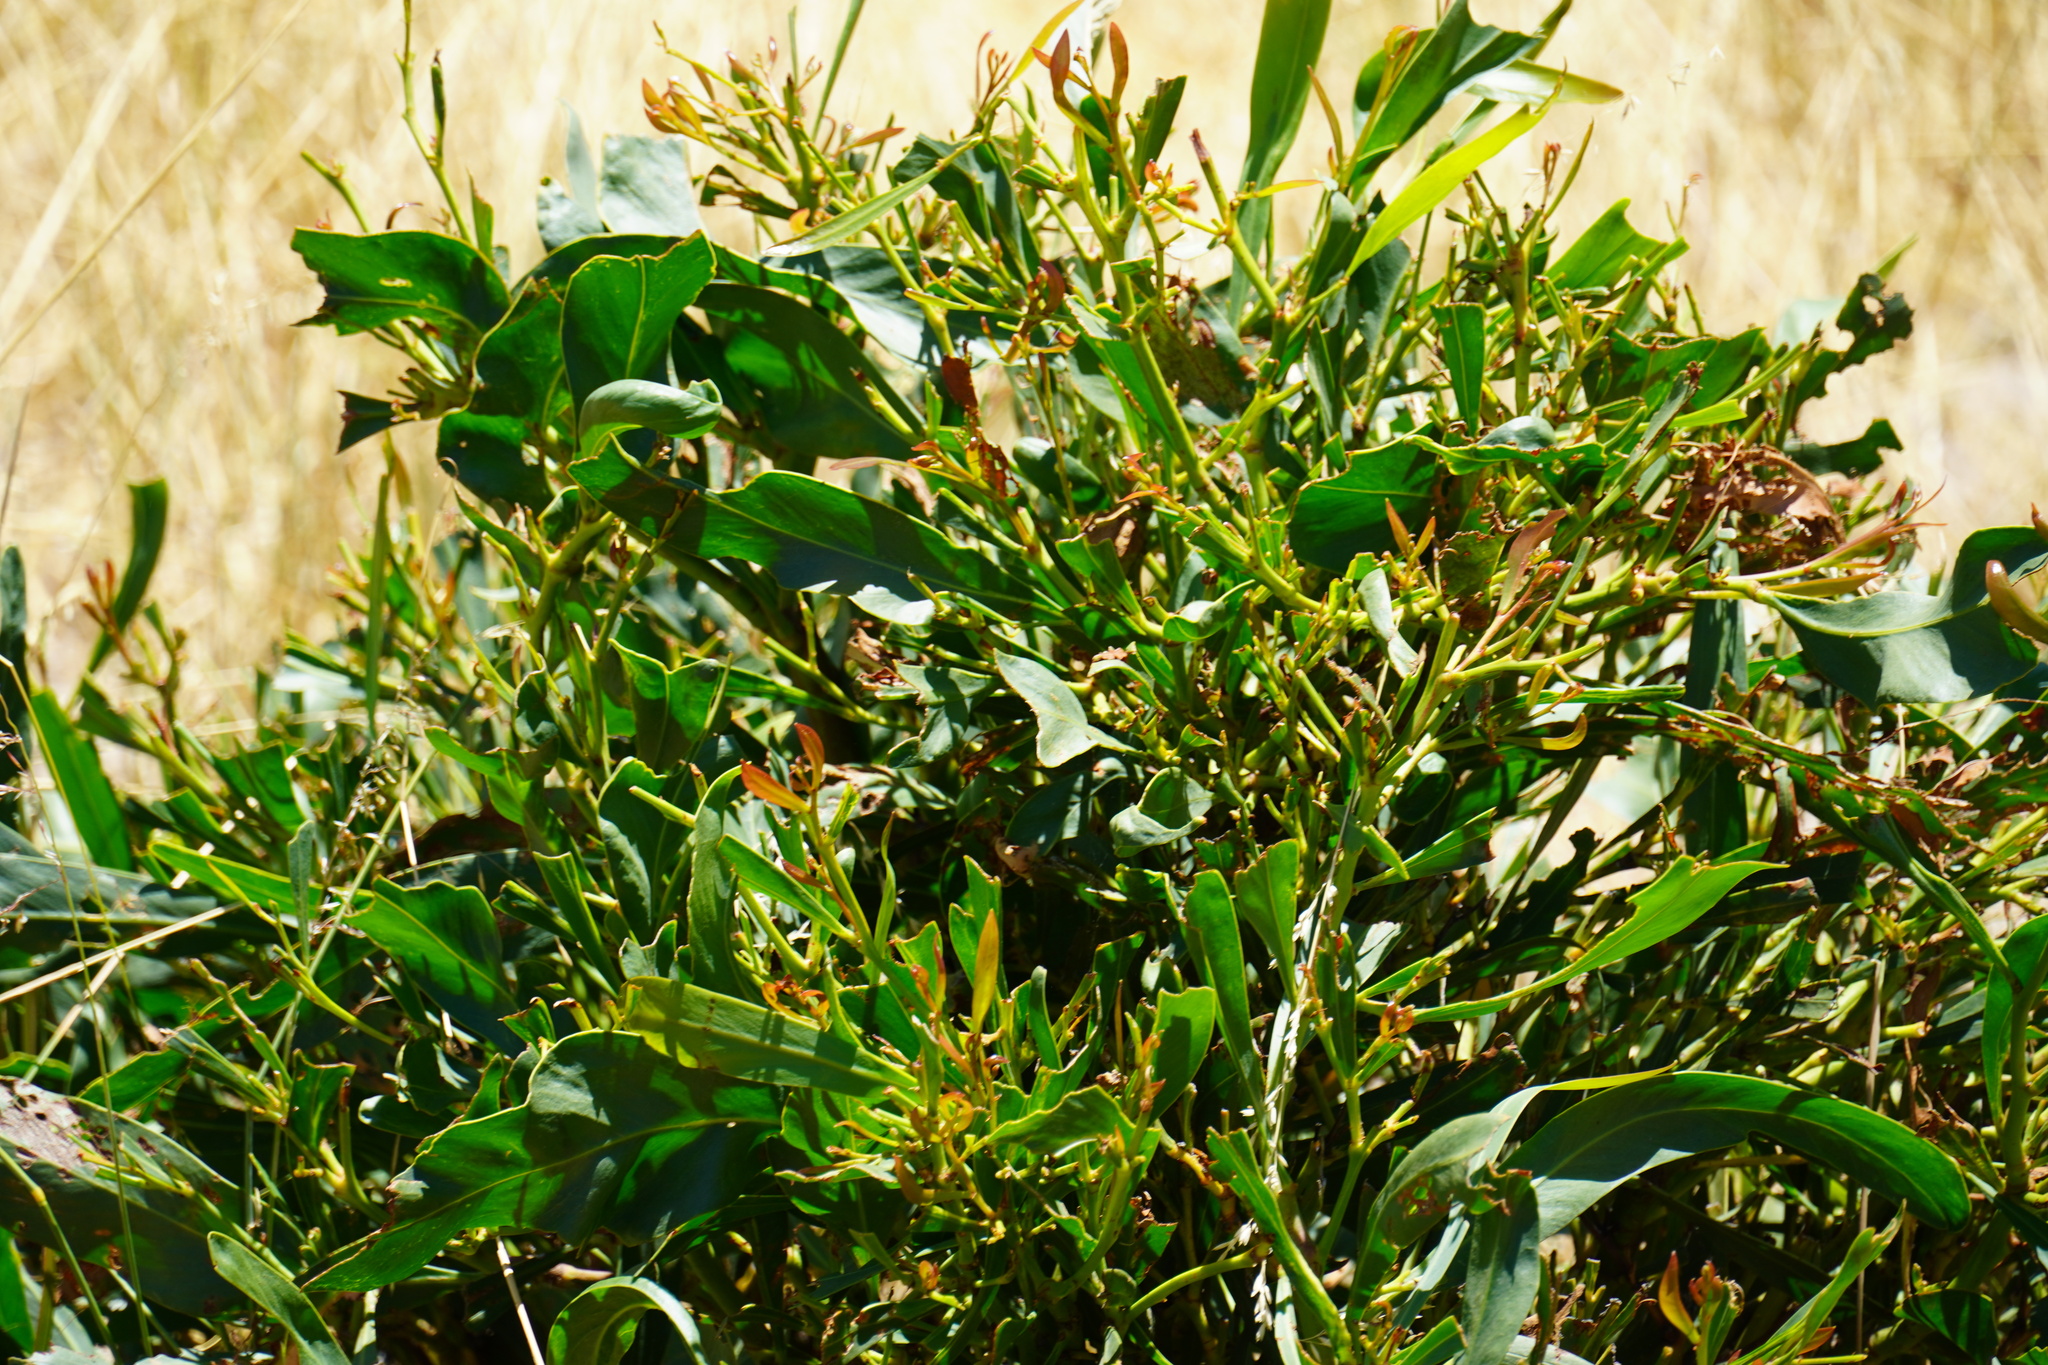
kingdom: Plantae
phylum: Tracheophyta
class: Magnoliopsida
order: Fabales
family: Fabaceae
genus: Acacia
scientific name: Acacia saligna
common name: Orange wattle
